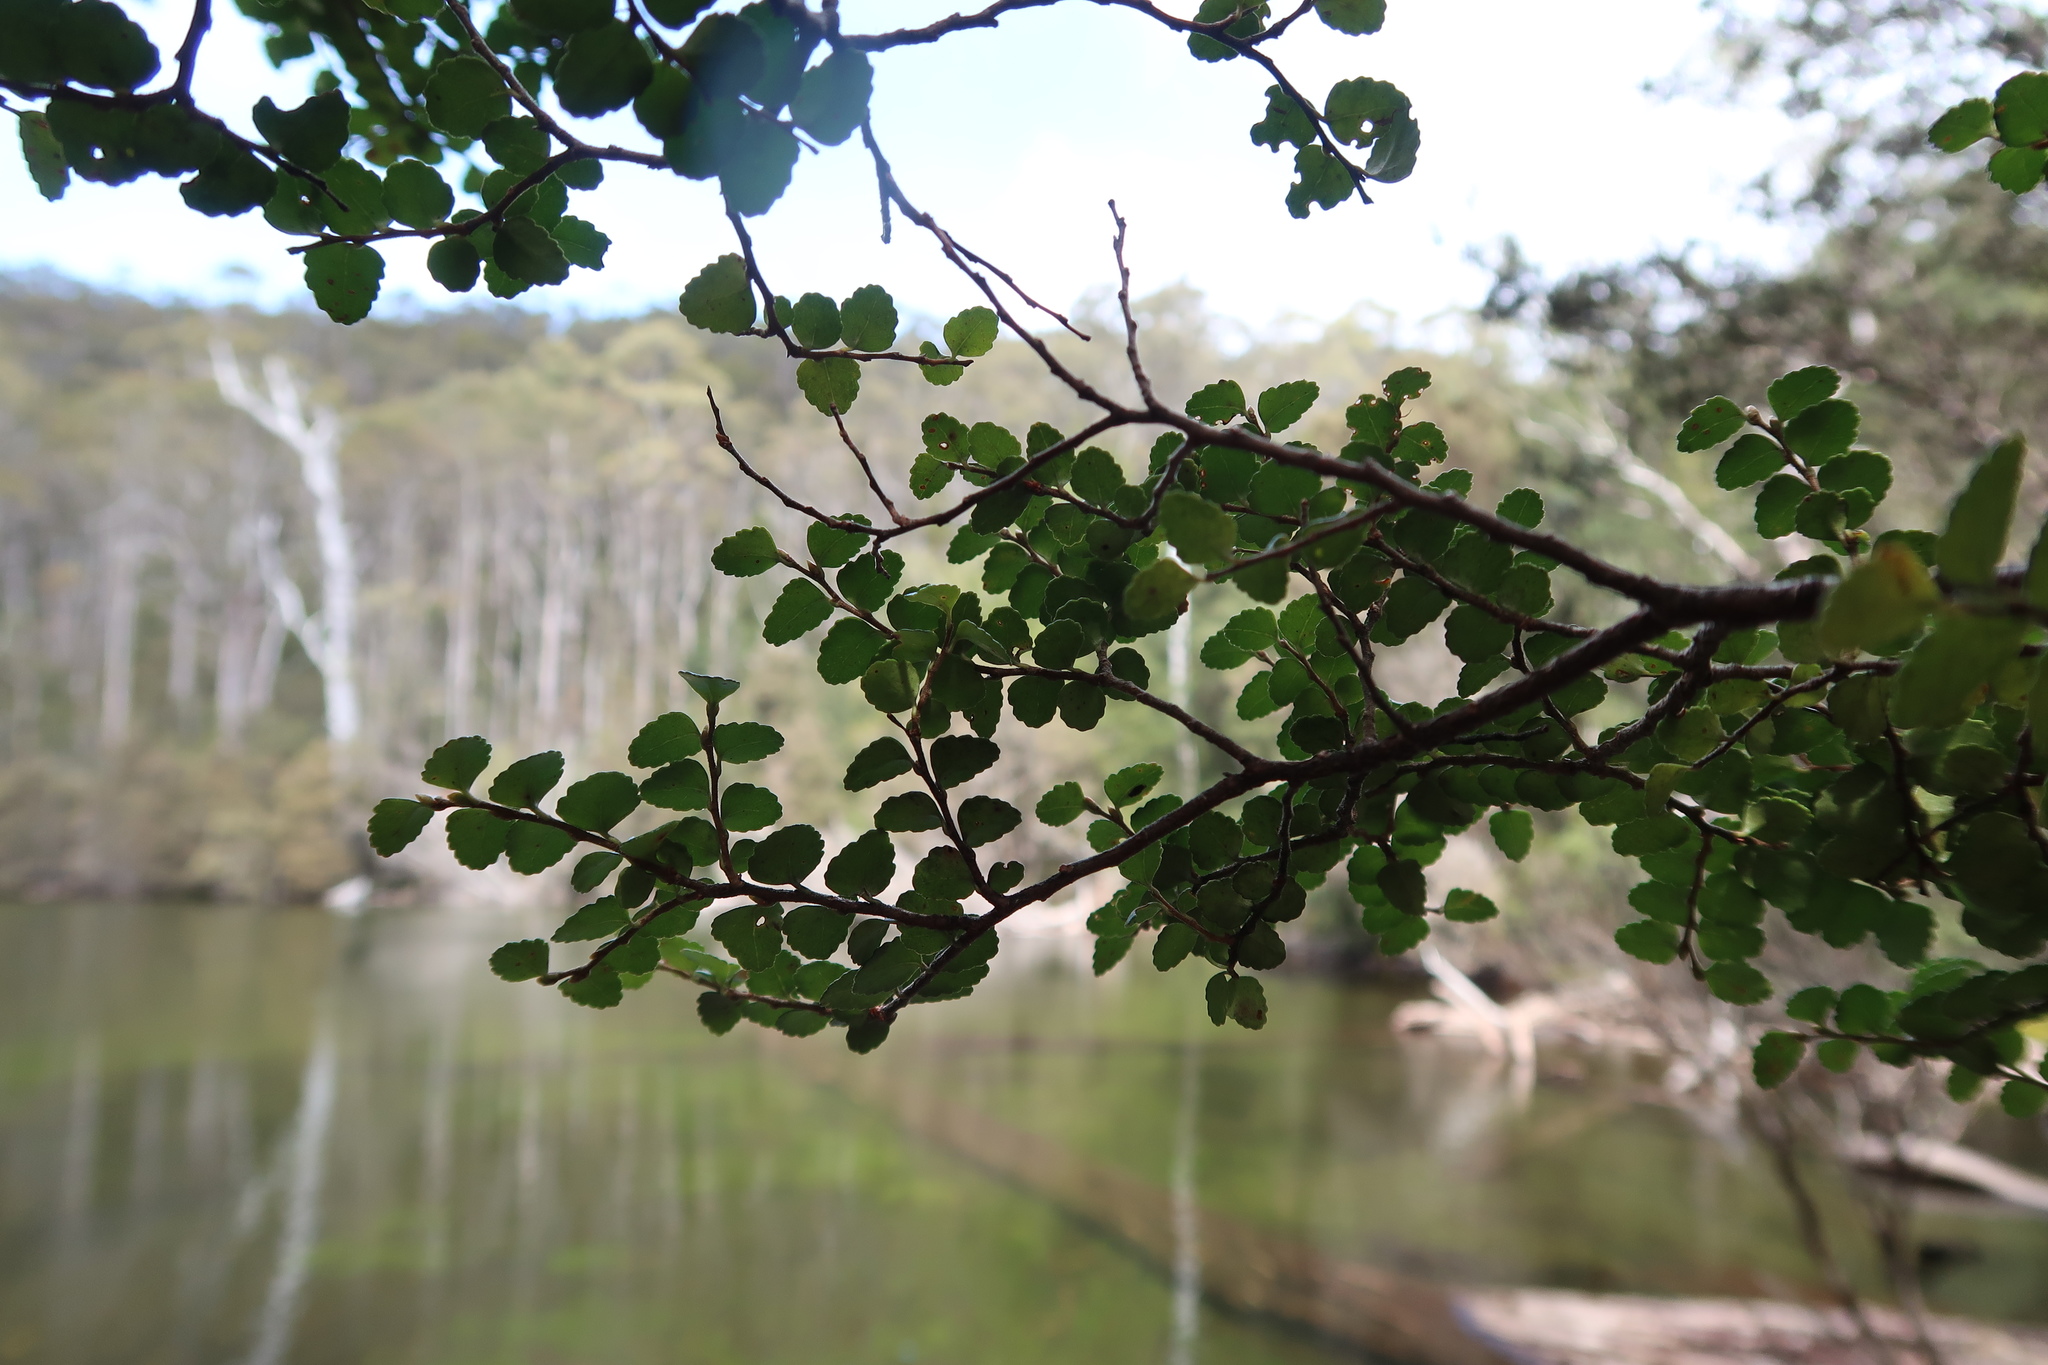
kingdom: Plantae
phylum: Tracheophyta
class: Magnoliopsida
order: Fagales
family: Nothofagaceae
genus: Nothofagus
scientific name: Nothofagus cunninghamii
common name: Myrtle beech
